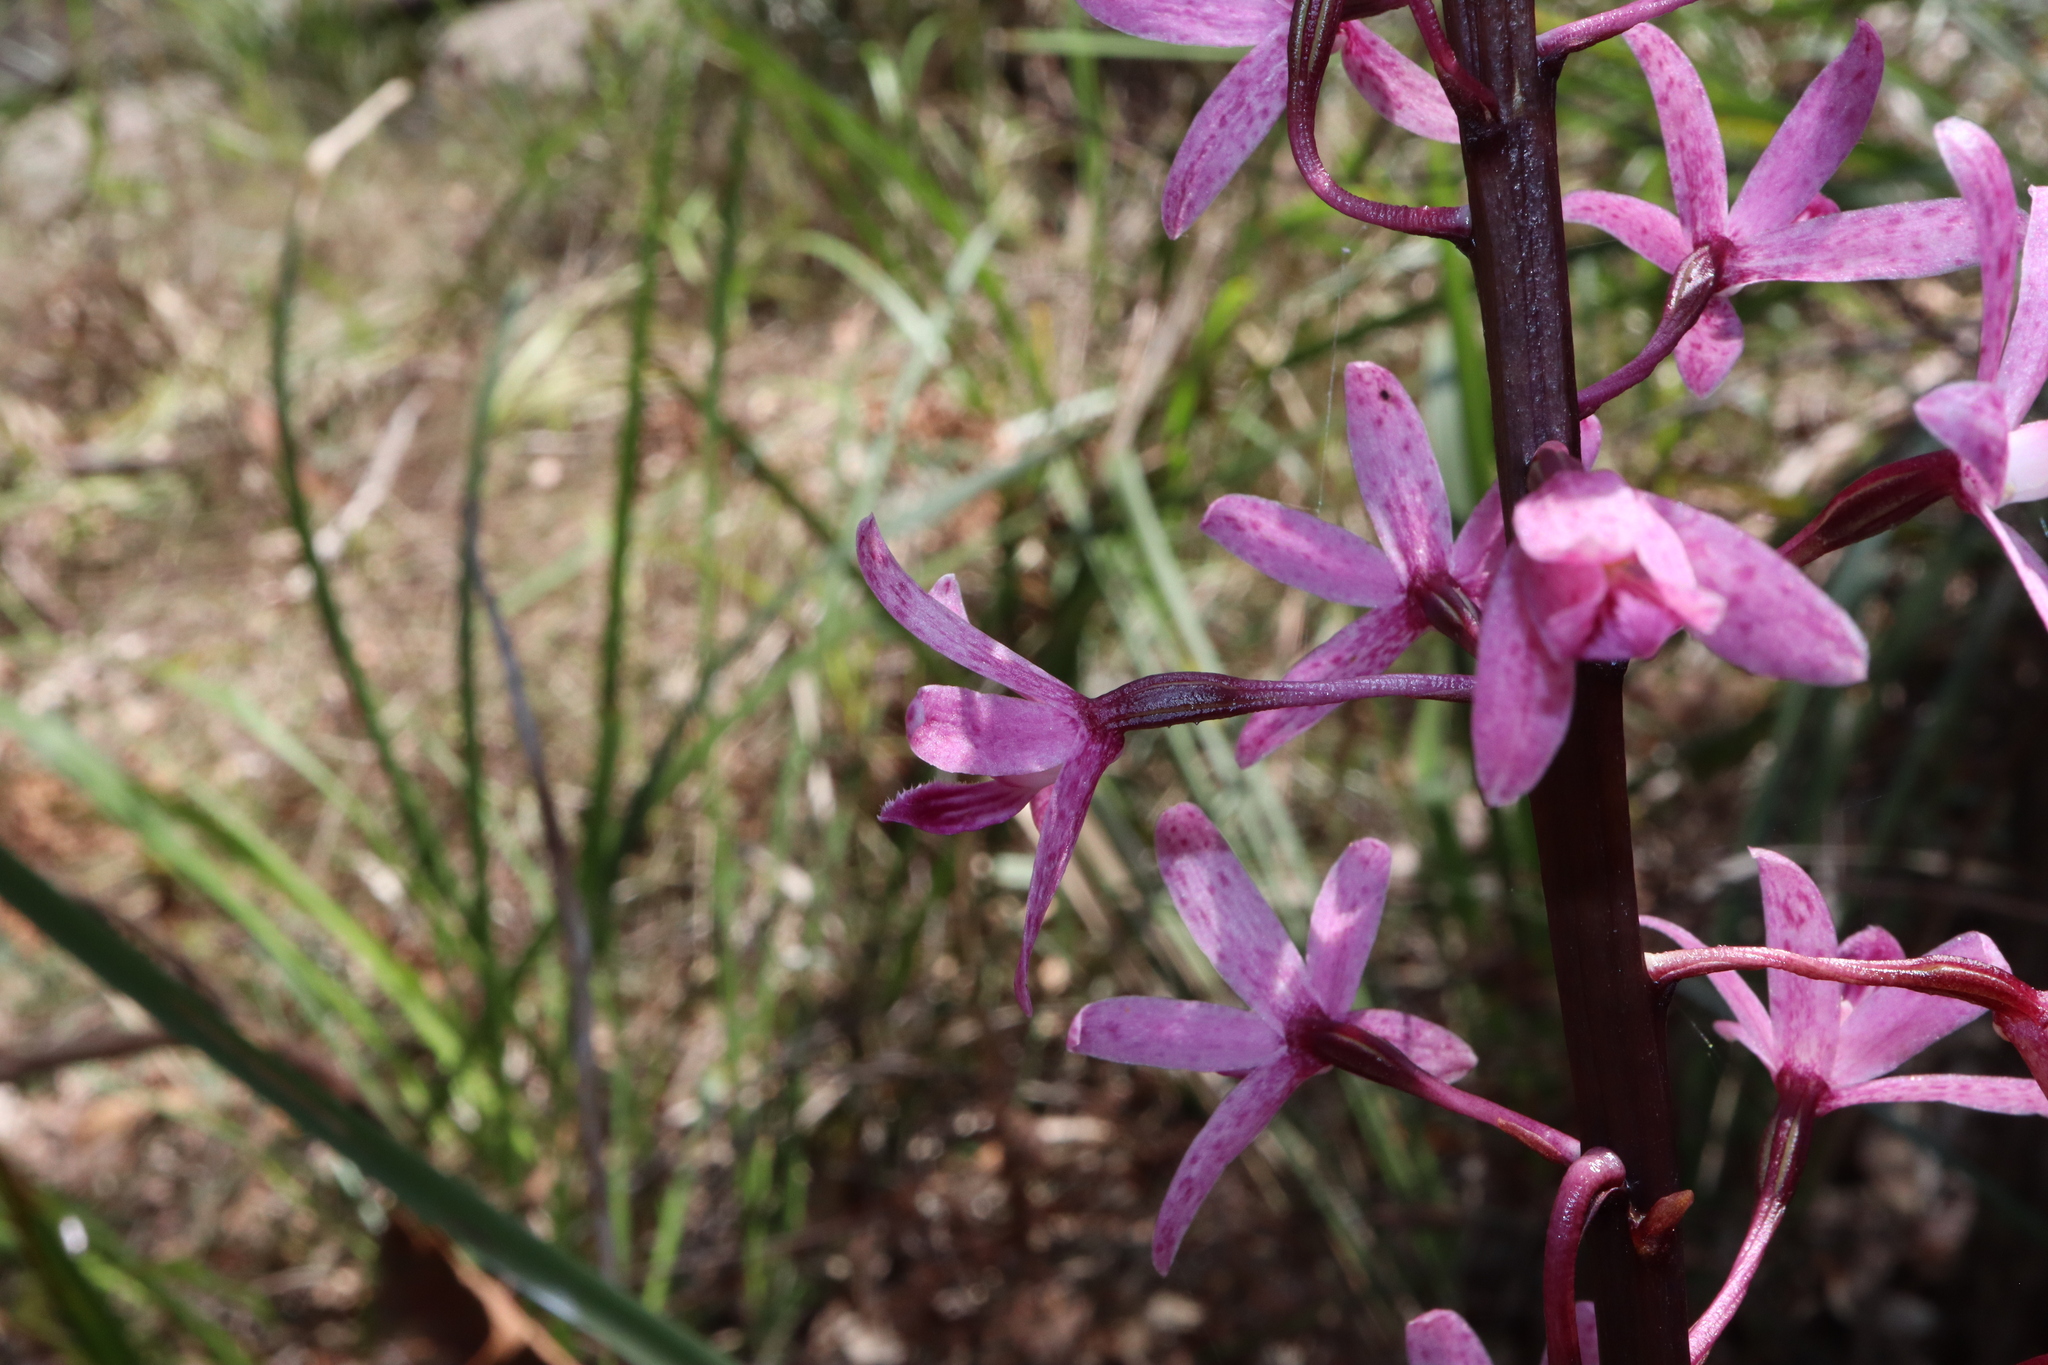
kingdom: Plantae
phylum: Tracheophyta
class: Liliopsida
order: Asparagales
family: Orchidaceae
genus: Dipodium
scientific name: Dipodium squamatum
